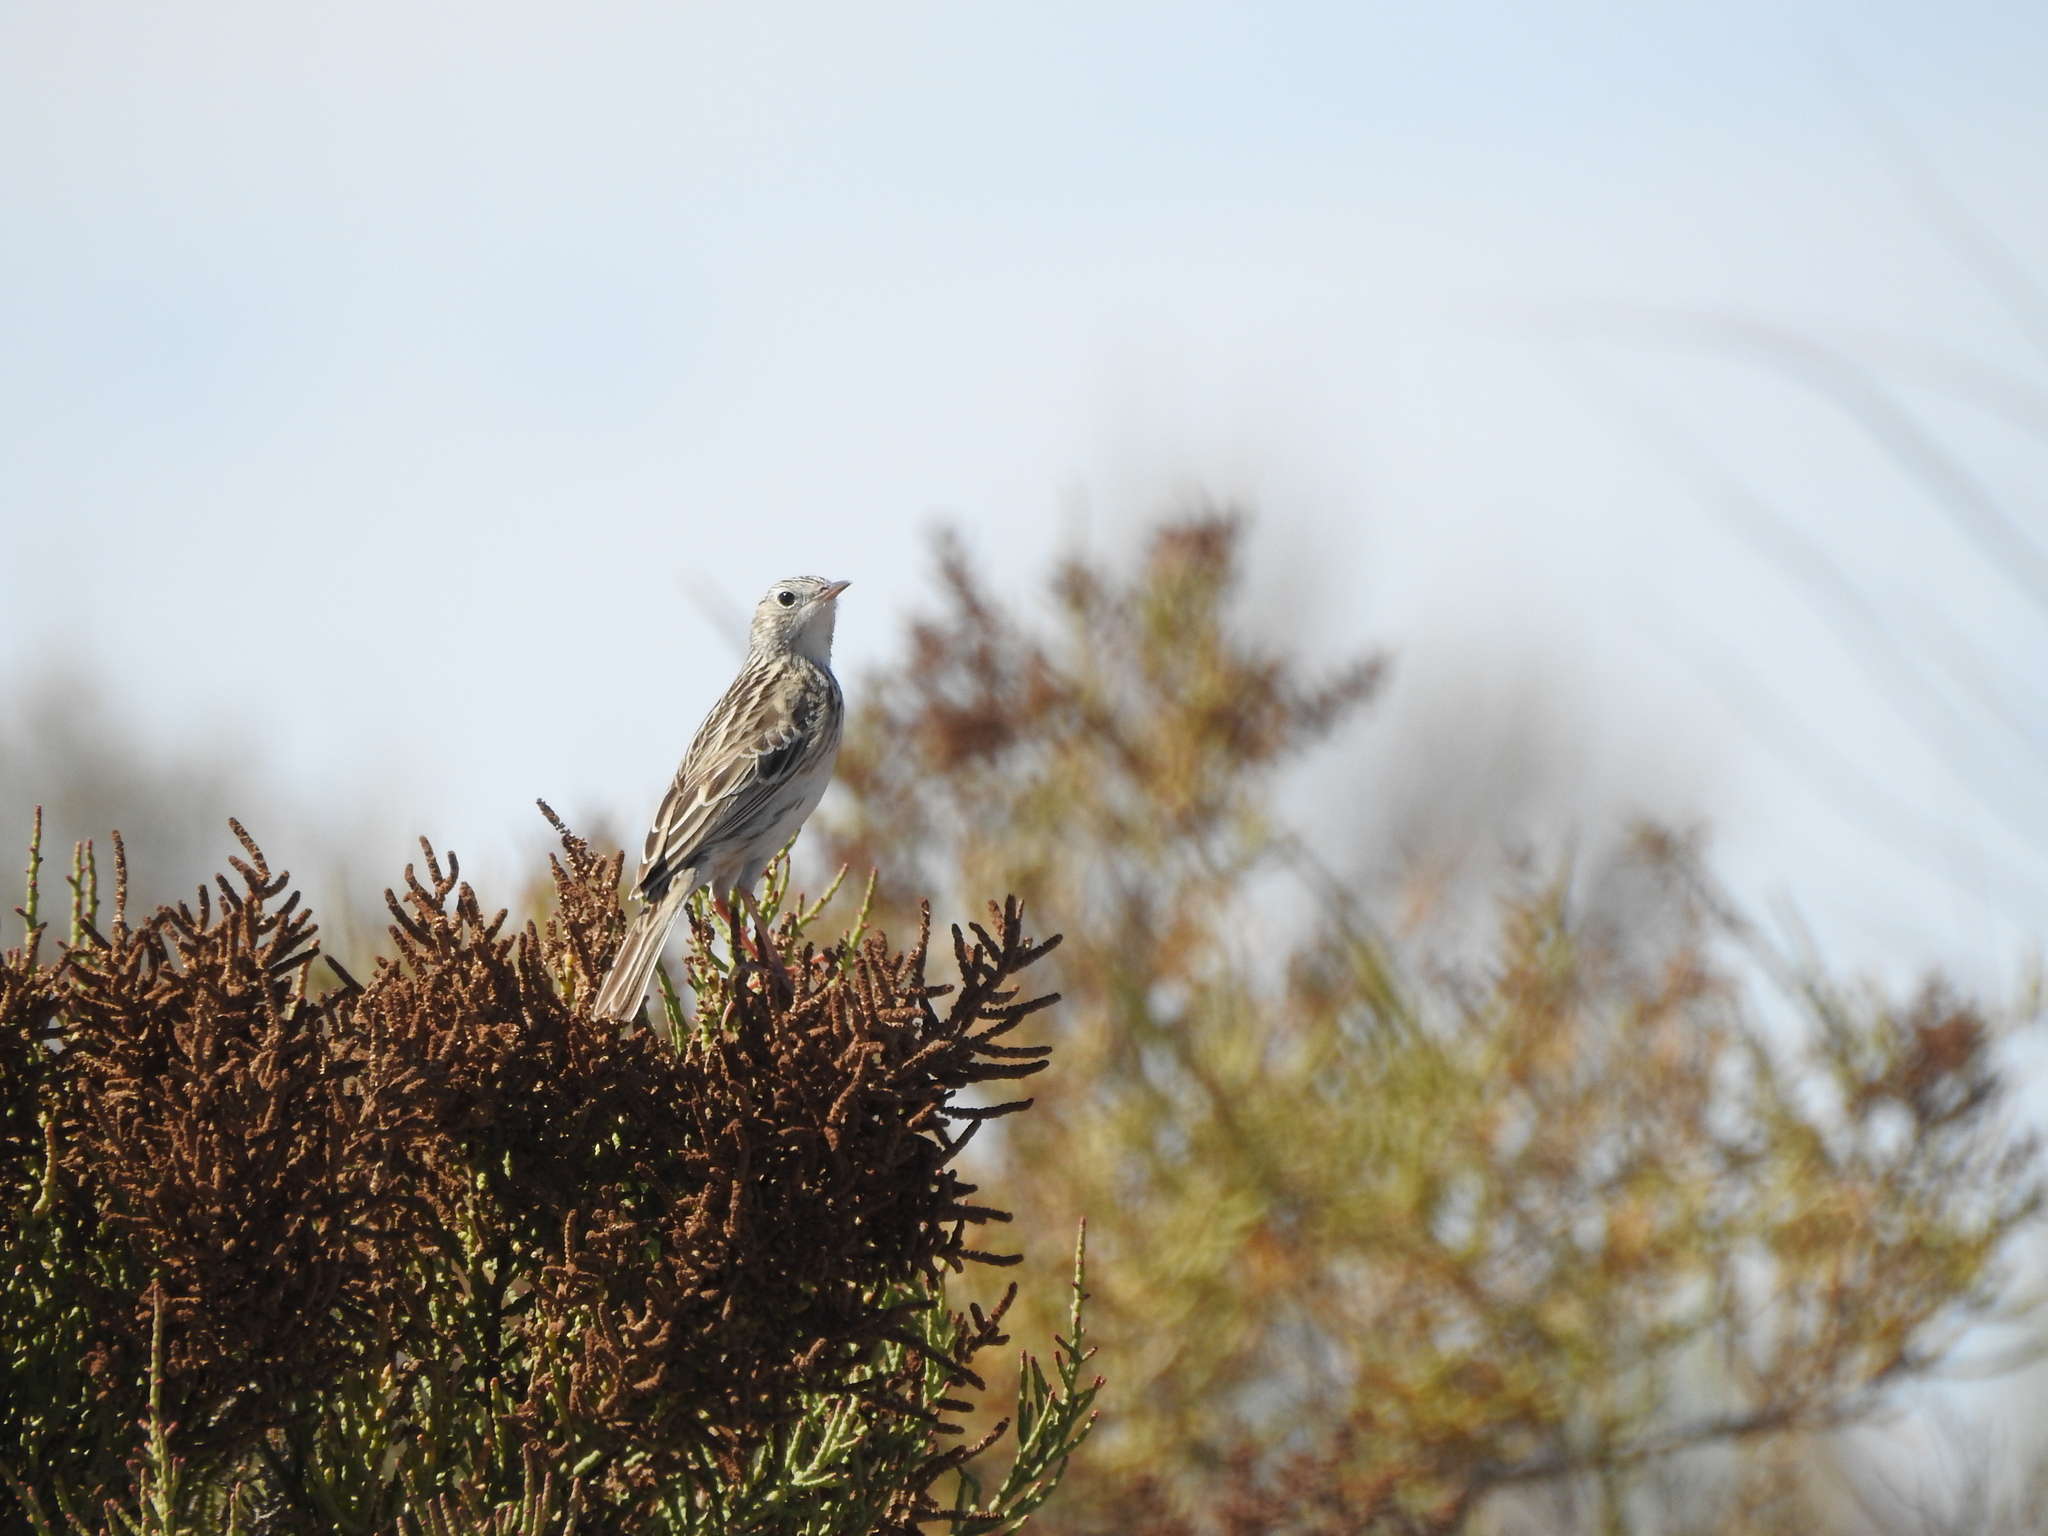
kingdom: Animalia
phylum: Chordata
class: Aves
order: Passeriformes
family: Motacillidae
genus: Anthus
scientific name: Anthus hellmayri
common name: Hellmayr's pipit
